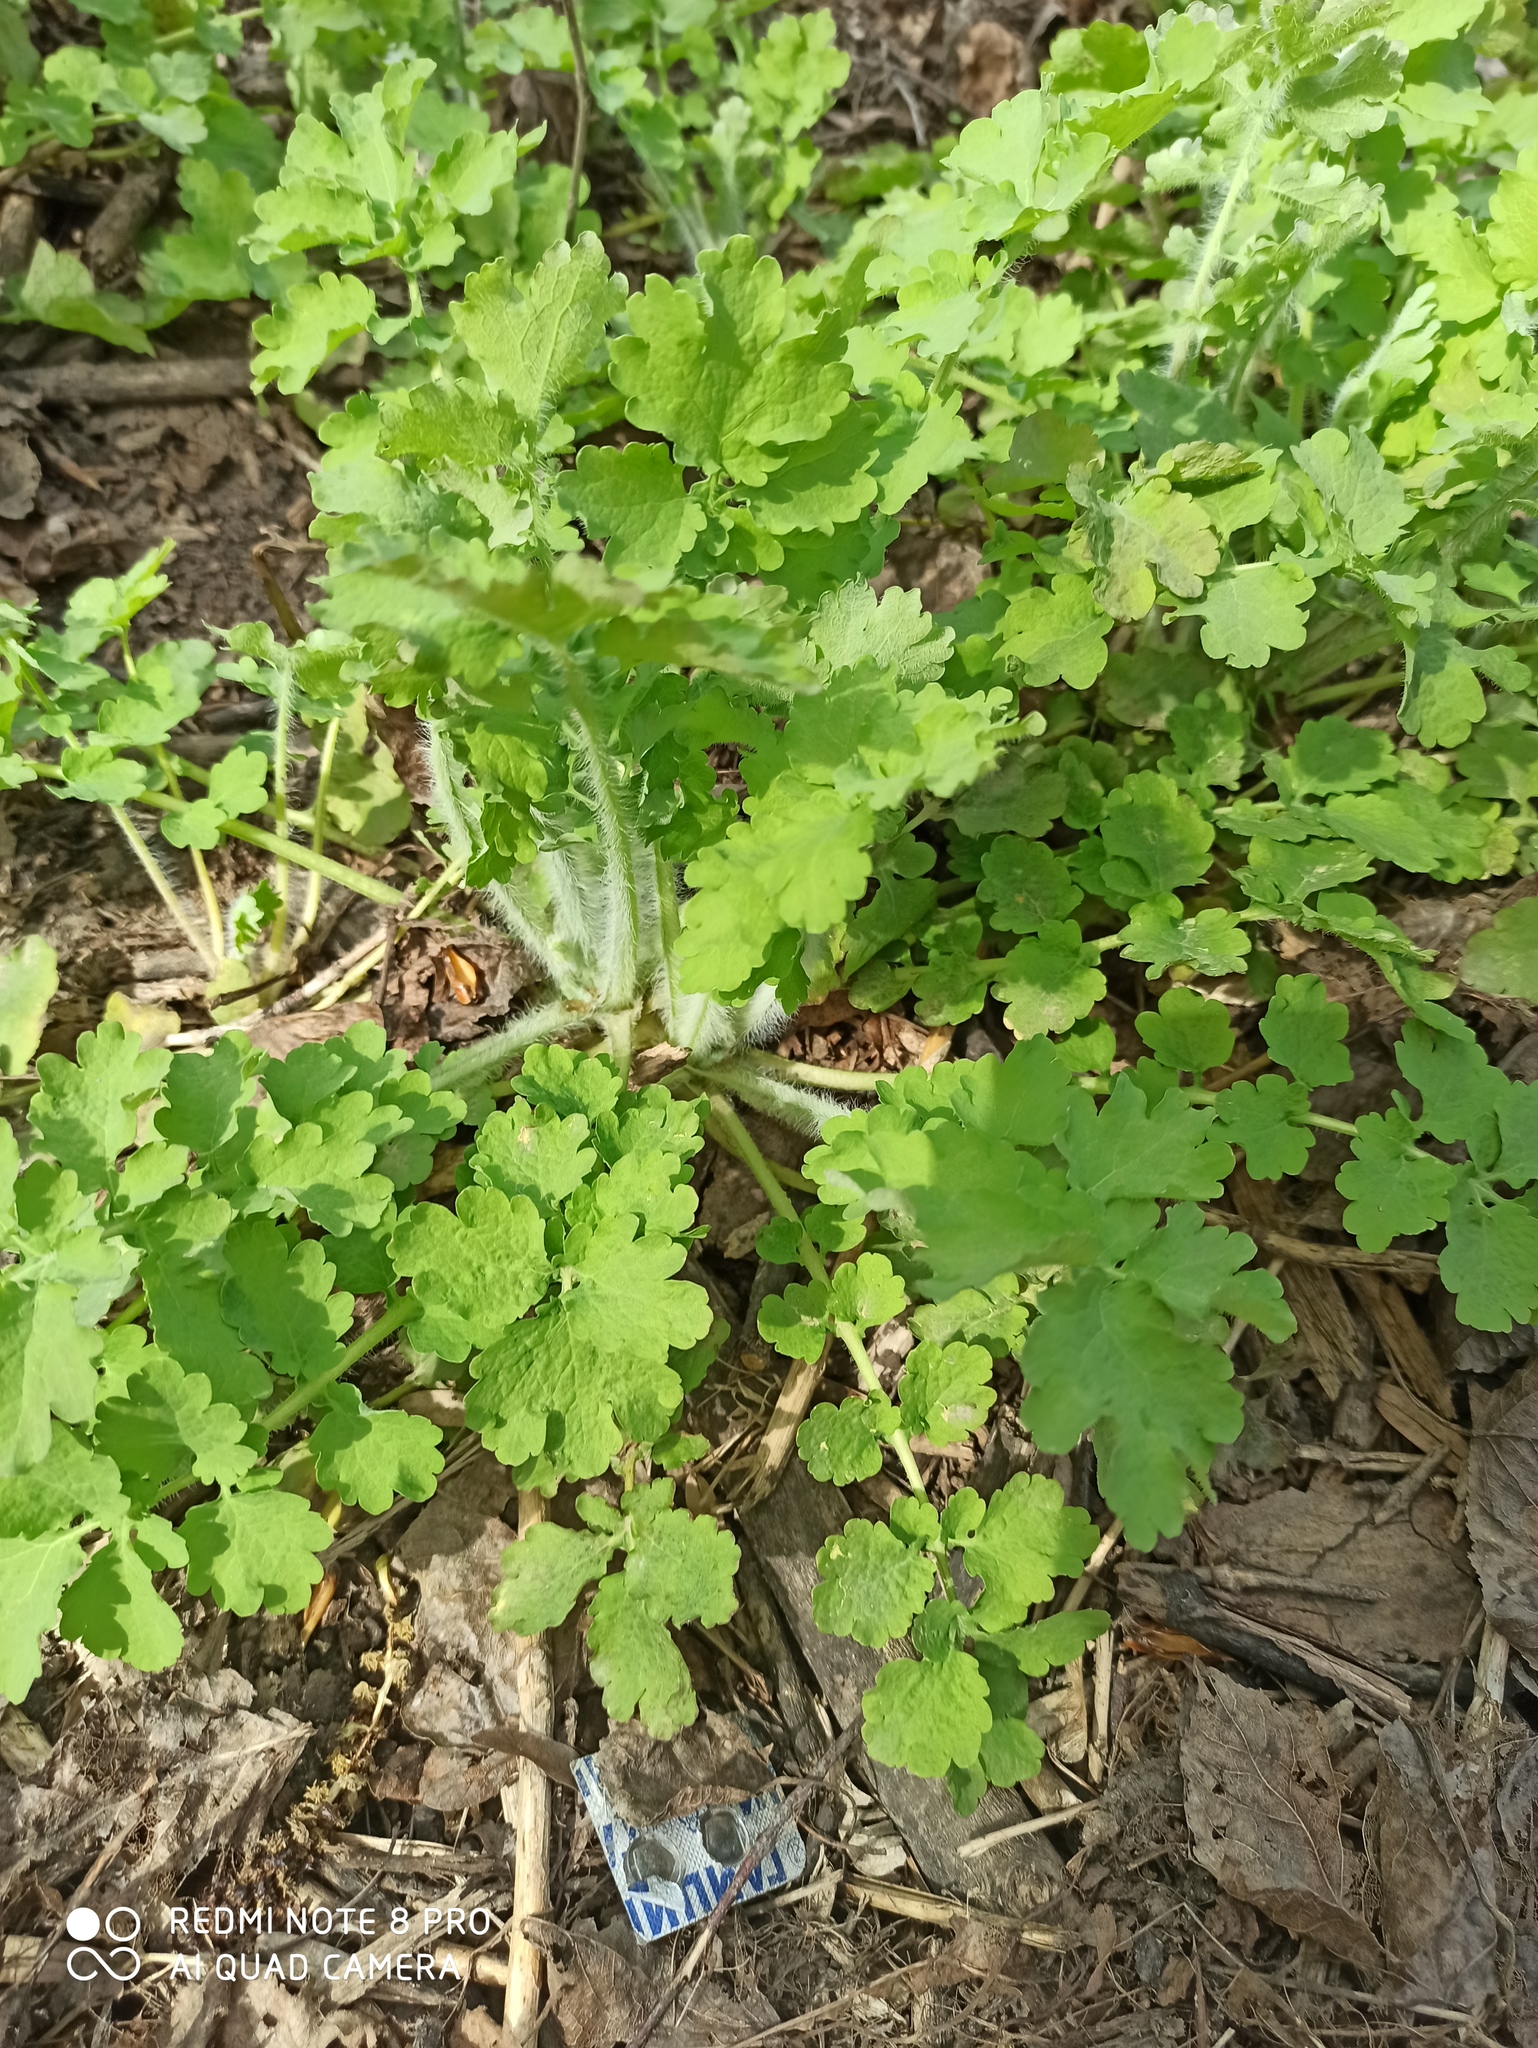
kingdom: Plantae
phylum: Tracheophyta
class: Magnoliopsida
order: Ranunculales
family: Papaveraceae
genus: Chelidonium
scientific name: Chelidonium majus
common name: Greater celandine
